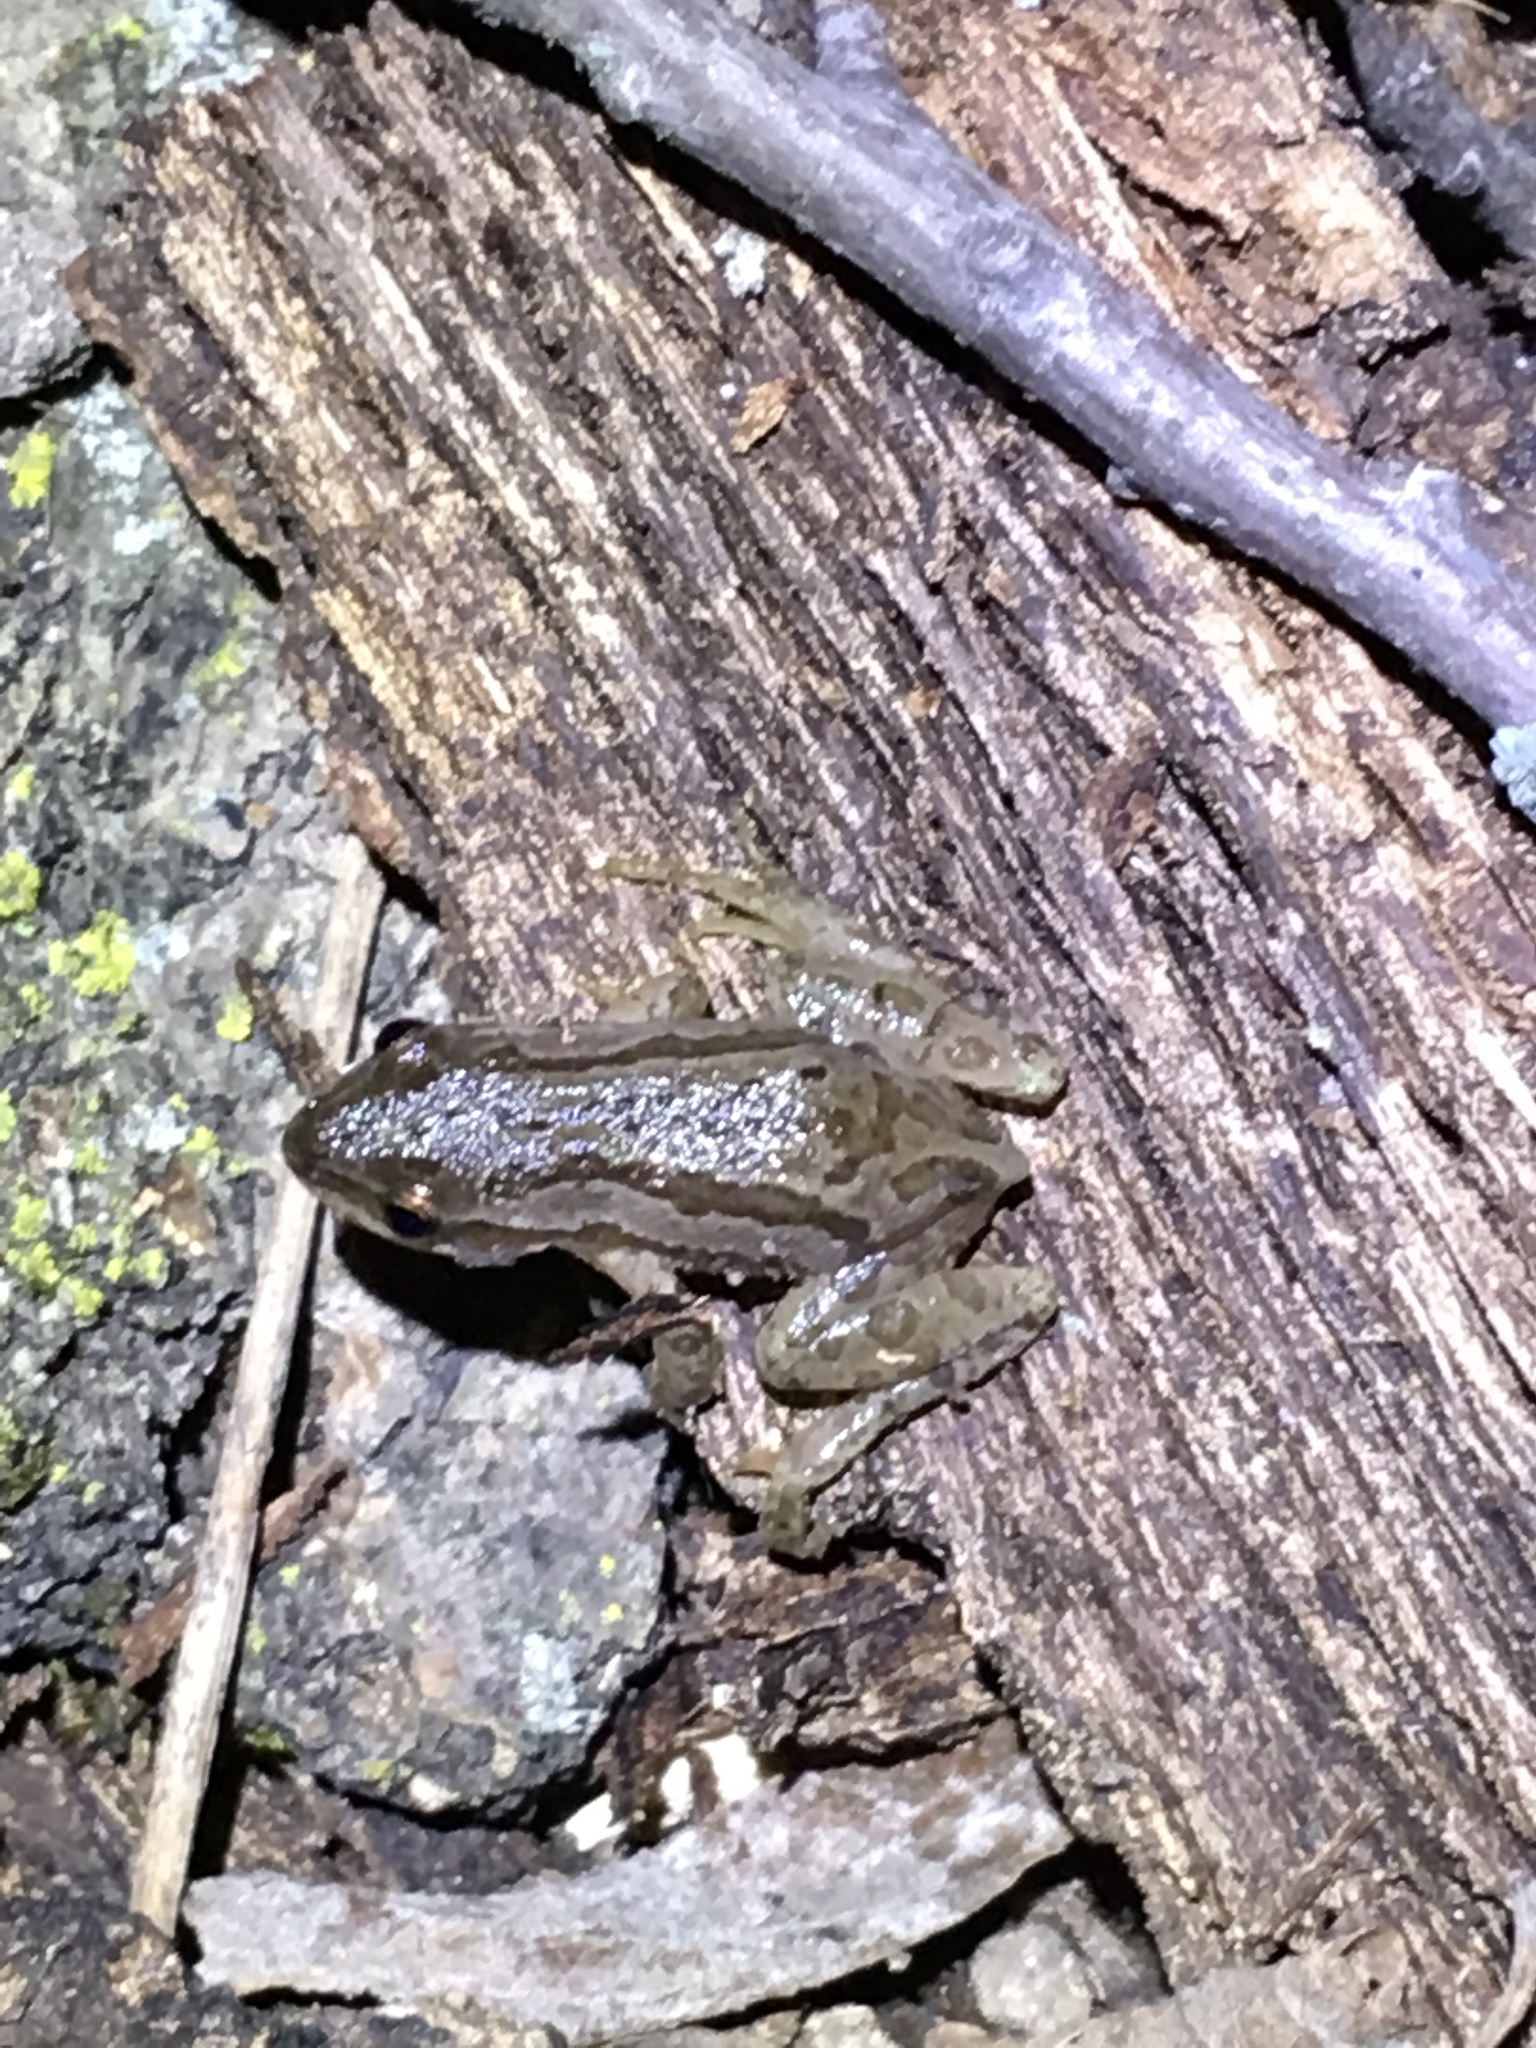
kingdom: Animalia
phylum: Chordata
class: Amphibia
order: Anura
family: Hylidae
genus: Pseudacris
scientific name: Pseudacris maculata
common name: Boreal chorus frog
